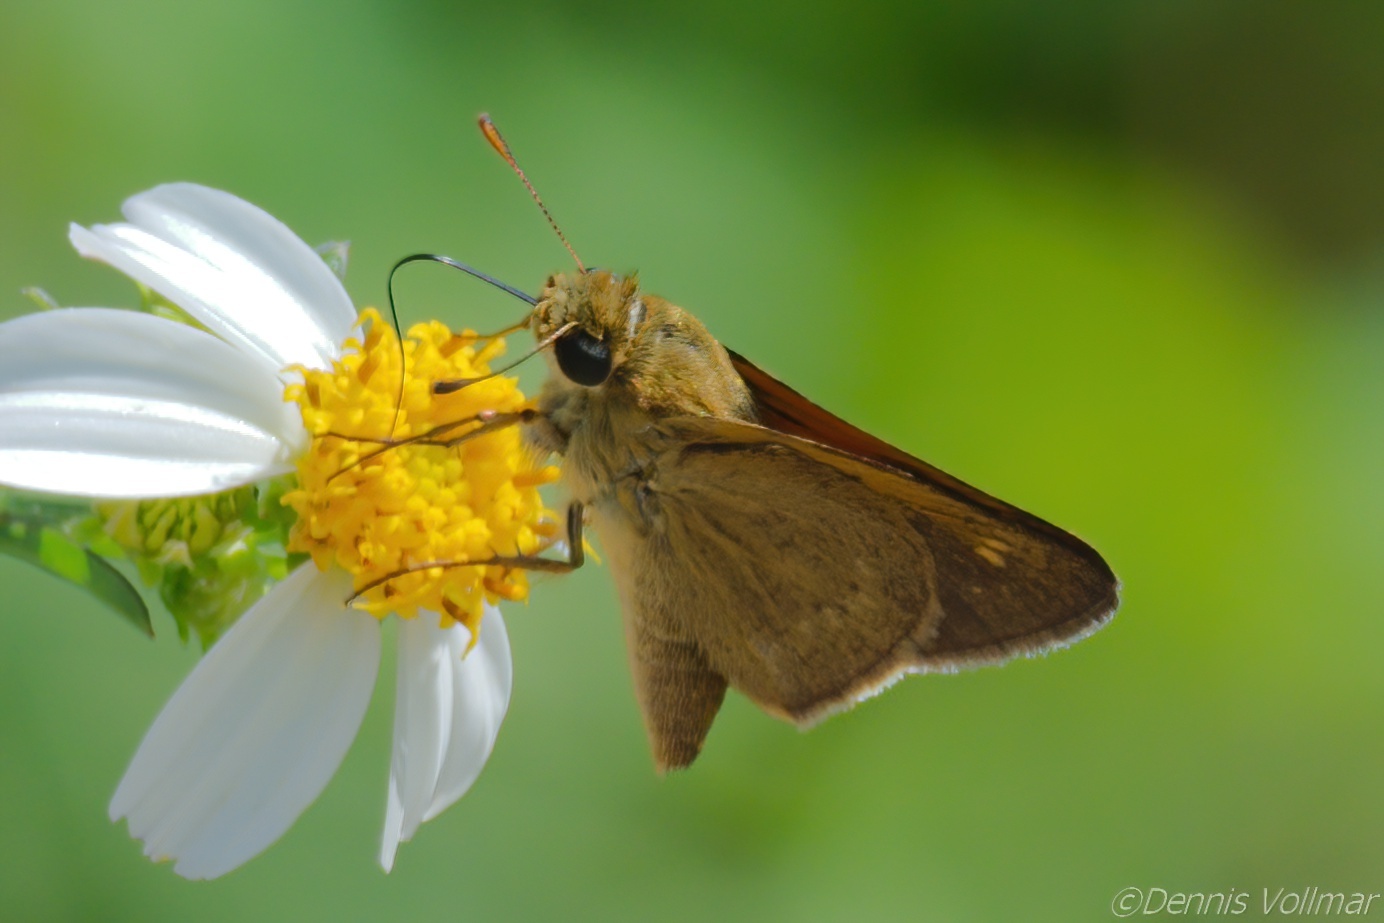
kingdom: Animalia
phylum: Arthropoda
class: Insecta
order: Lepidoptera
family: Hesperiidae
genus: Polites
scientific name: Polites themistocles
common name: Tawny-edged skipper
